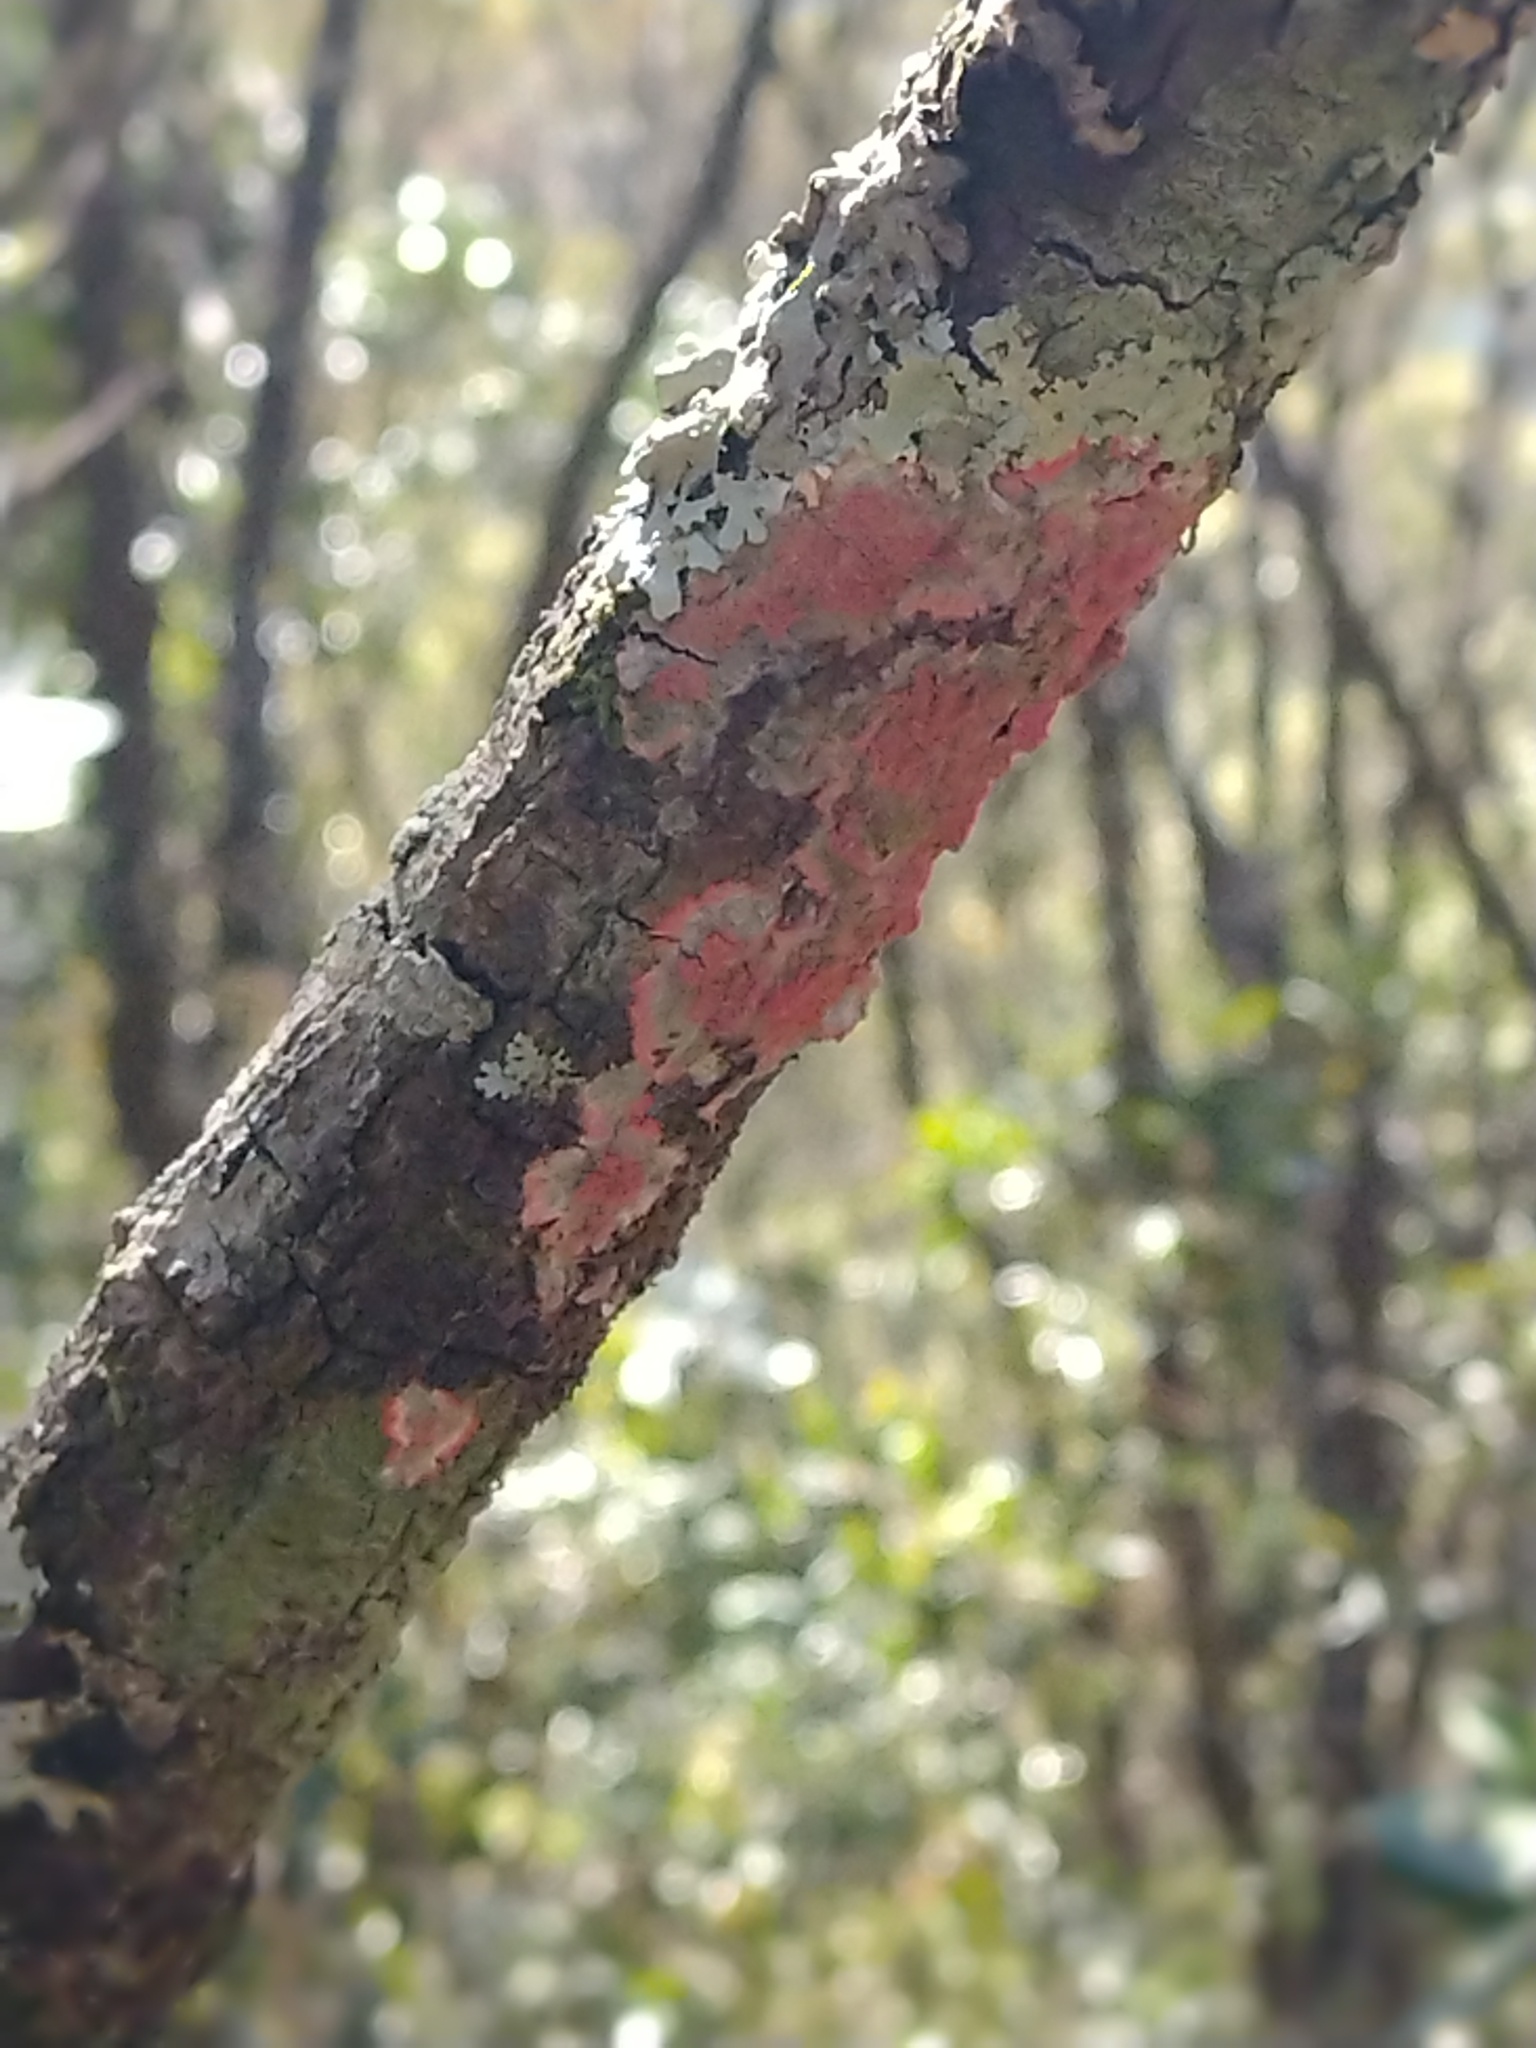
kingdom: Fungi
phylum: Ascomycota
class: Arthoniomycetes
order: Arthoniales
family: Arthoniaceae
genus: Herpothallon
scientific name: Herpothallon rubrocinctum
